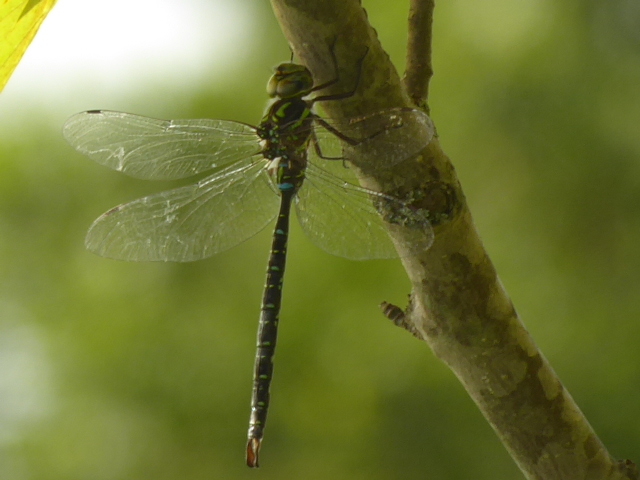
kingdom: Animalia
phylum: Arthropoda
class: Insecta
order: Odonata
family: Aeshnidae
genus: Aeshna
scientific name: Aeshna umbrosa
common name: Shadow darner
